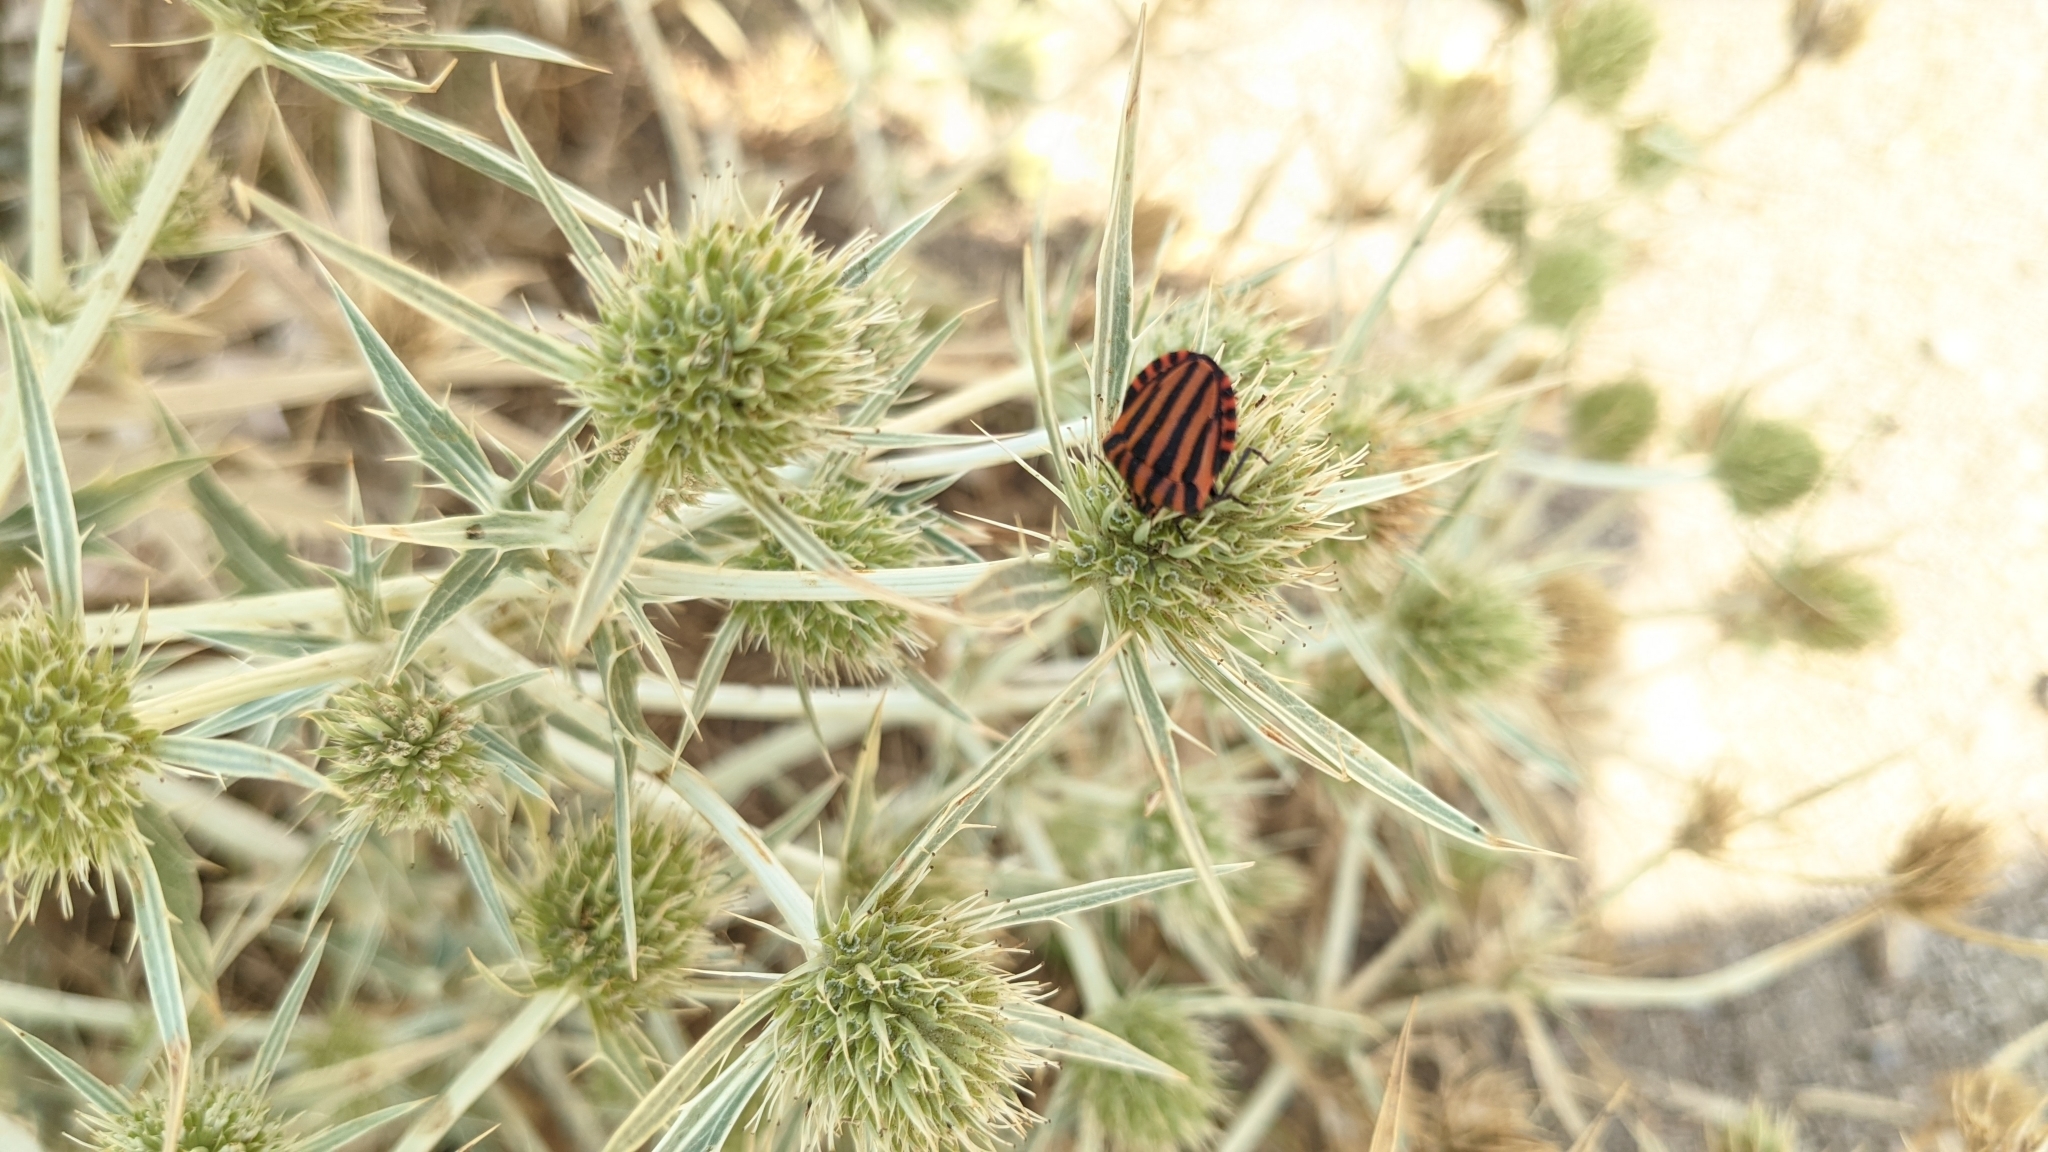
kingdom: Animalia
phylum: Arthropoda
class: Insecta
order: Hemiptera
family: Pentatomidae
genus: Graphosoma
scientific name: Graphosoma italicum
